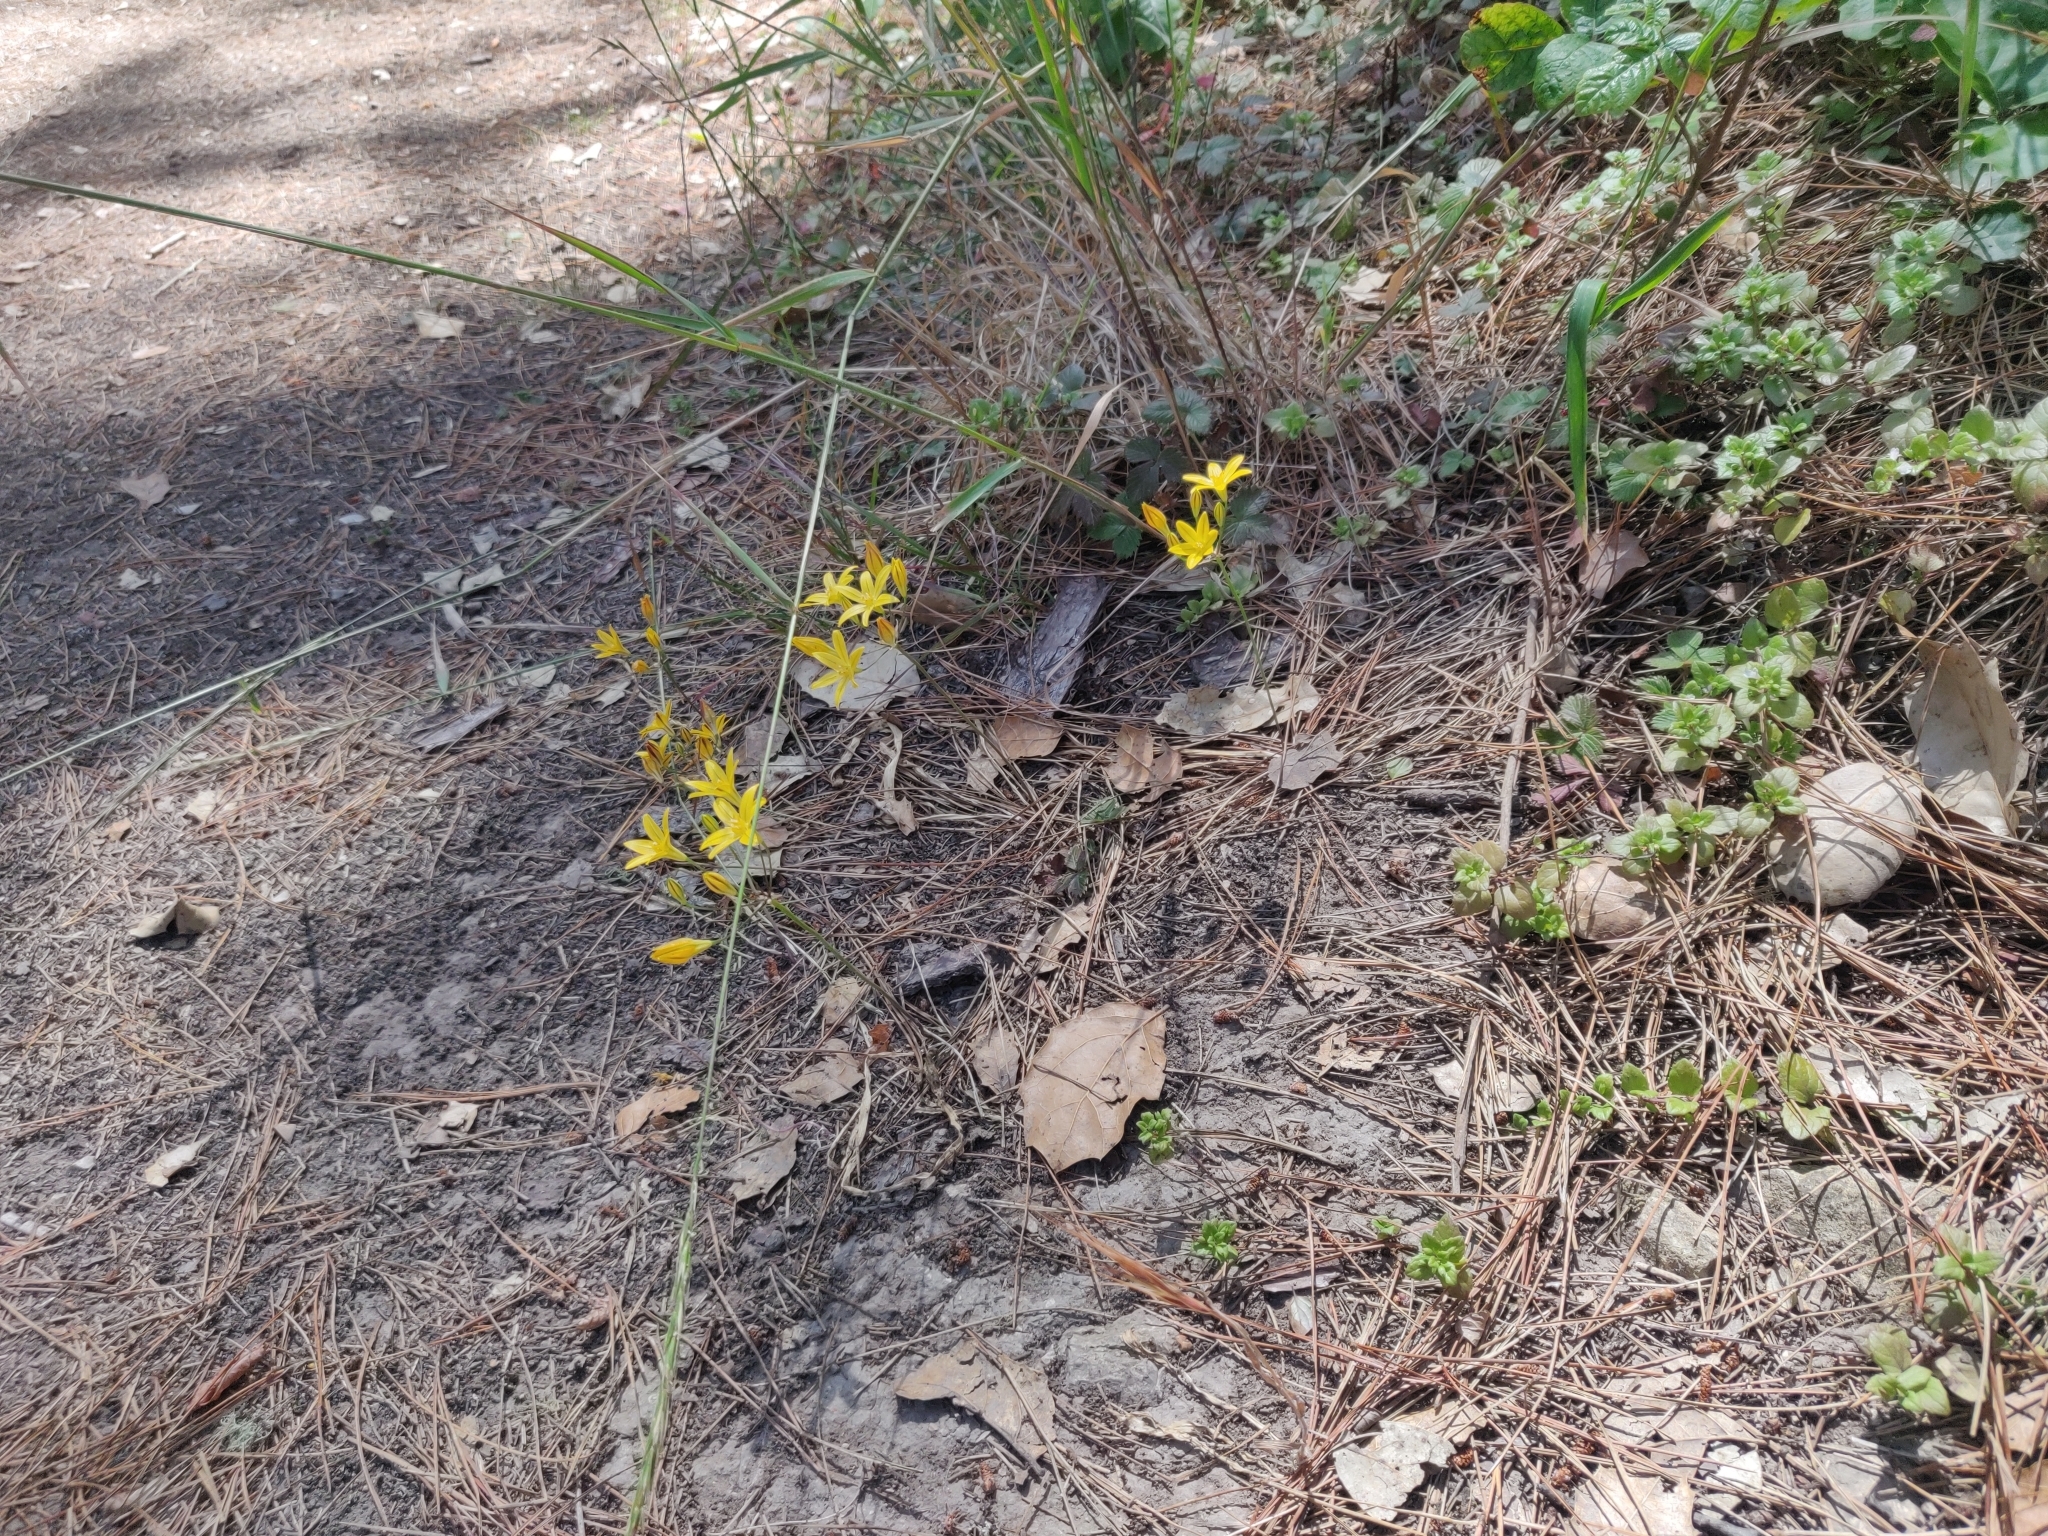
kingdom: Plantae
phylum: Tracheophyta
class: Liliopsida
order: Asparagales
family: Asparagaceae
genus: Triteleia
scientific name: Triteleia ixioides
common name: Yellow-brodiaea
